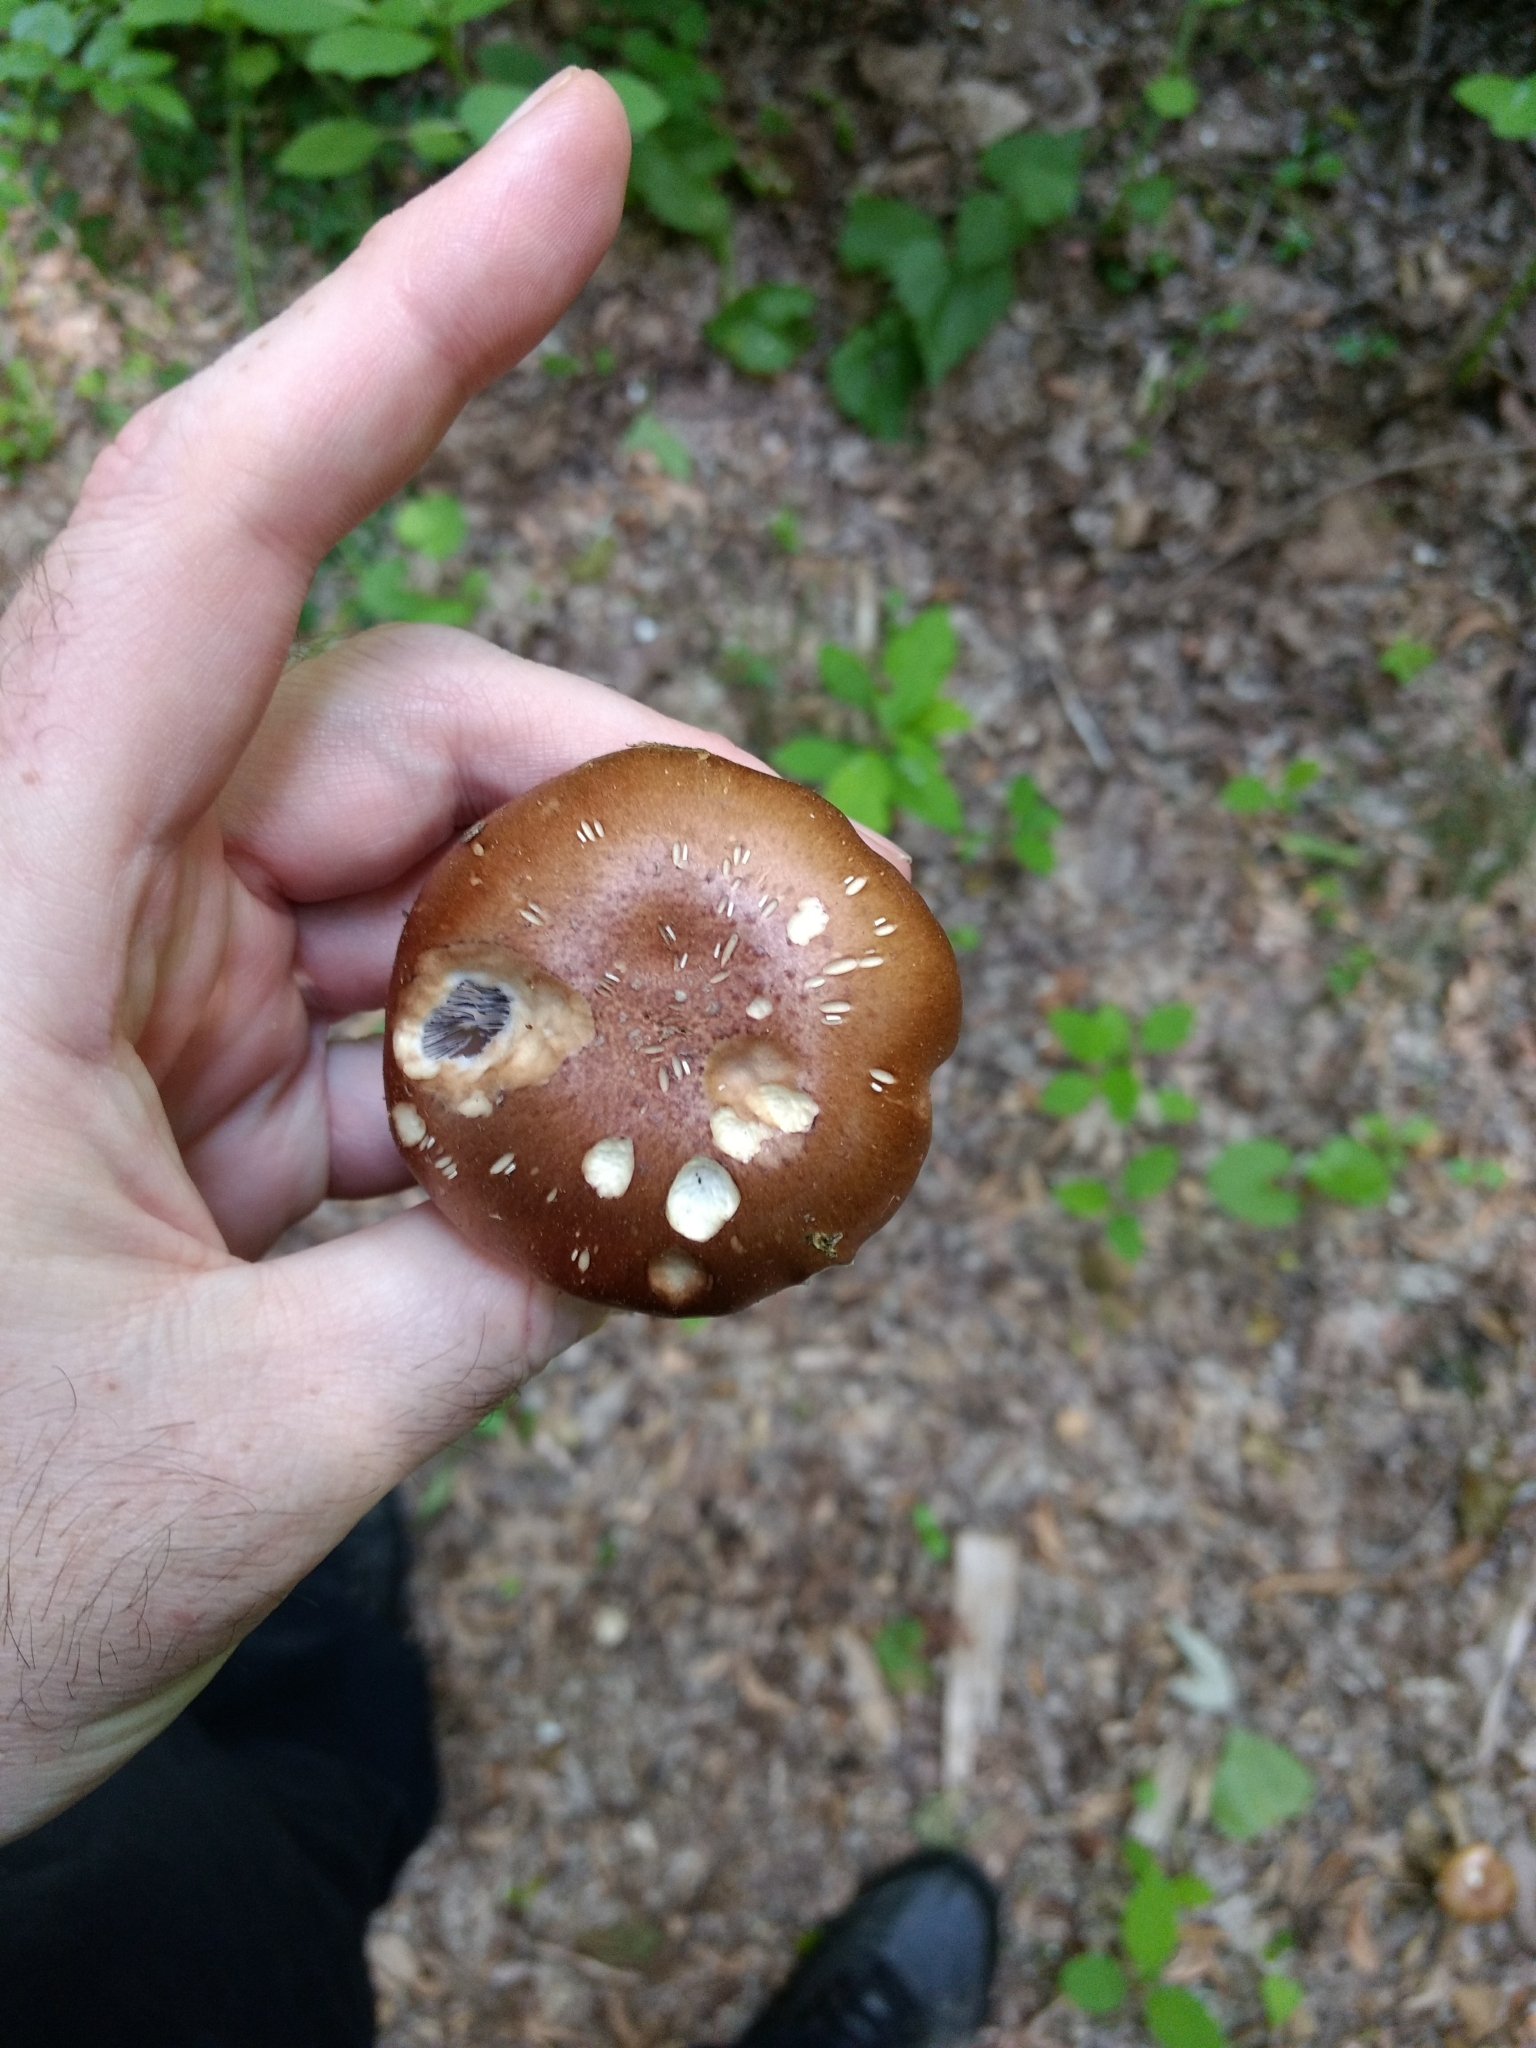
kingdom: Fungi
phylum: Basidiomycota
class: Agaricomycetes
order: Agaricales
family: Strophariaceae
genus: Stropharia
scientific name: Stropharia rugosoannulata
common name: Wine roundhead
